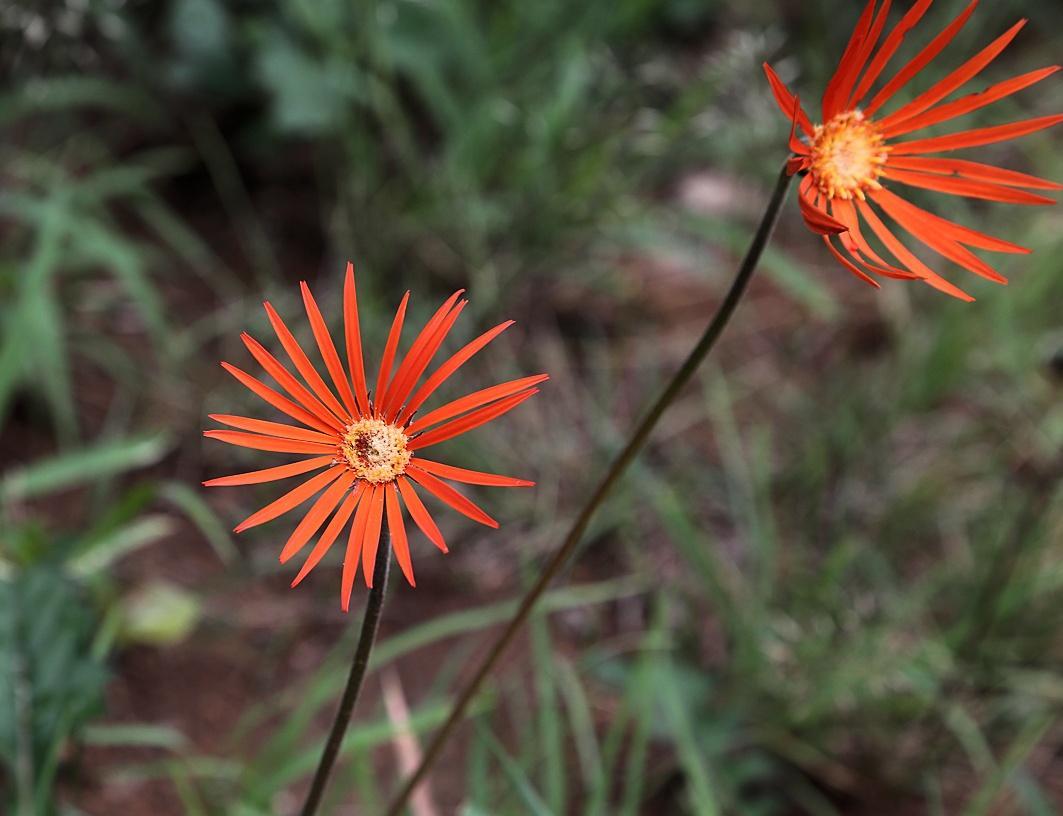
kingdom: Plantae
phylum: Tracheophyta
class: Magnoliopsida
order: Asterales
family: Asteraceae
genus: Gerbera
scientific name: Gerbera jamesonii
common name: African daisy
